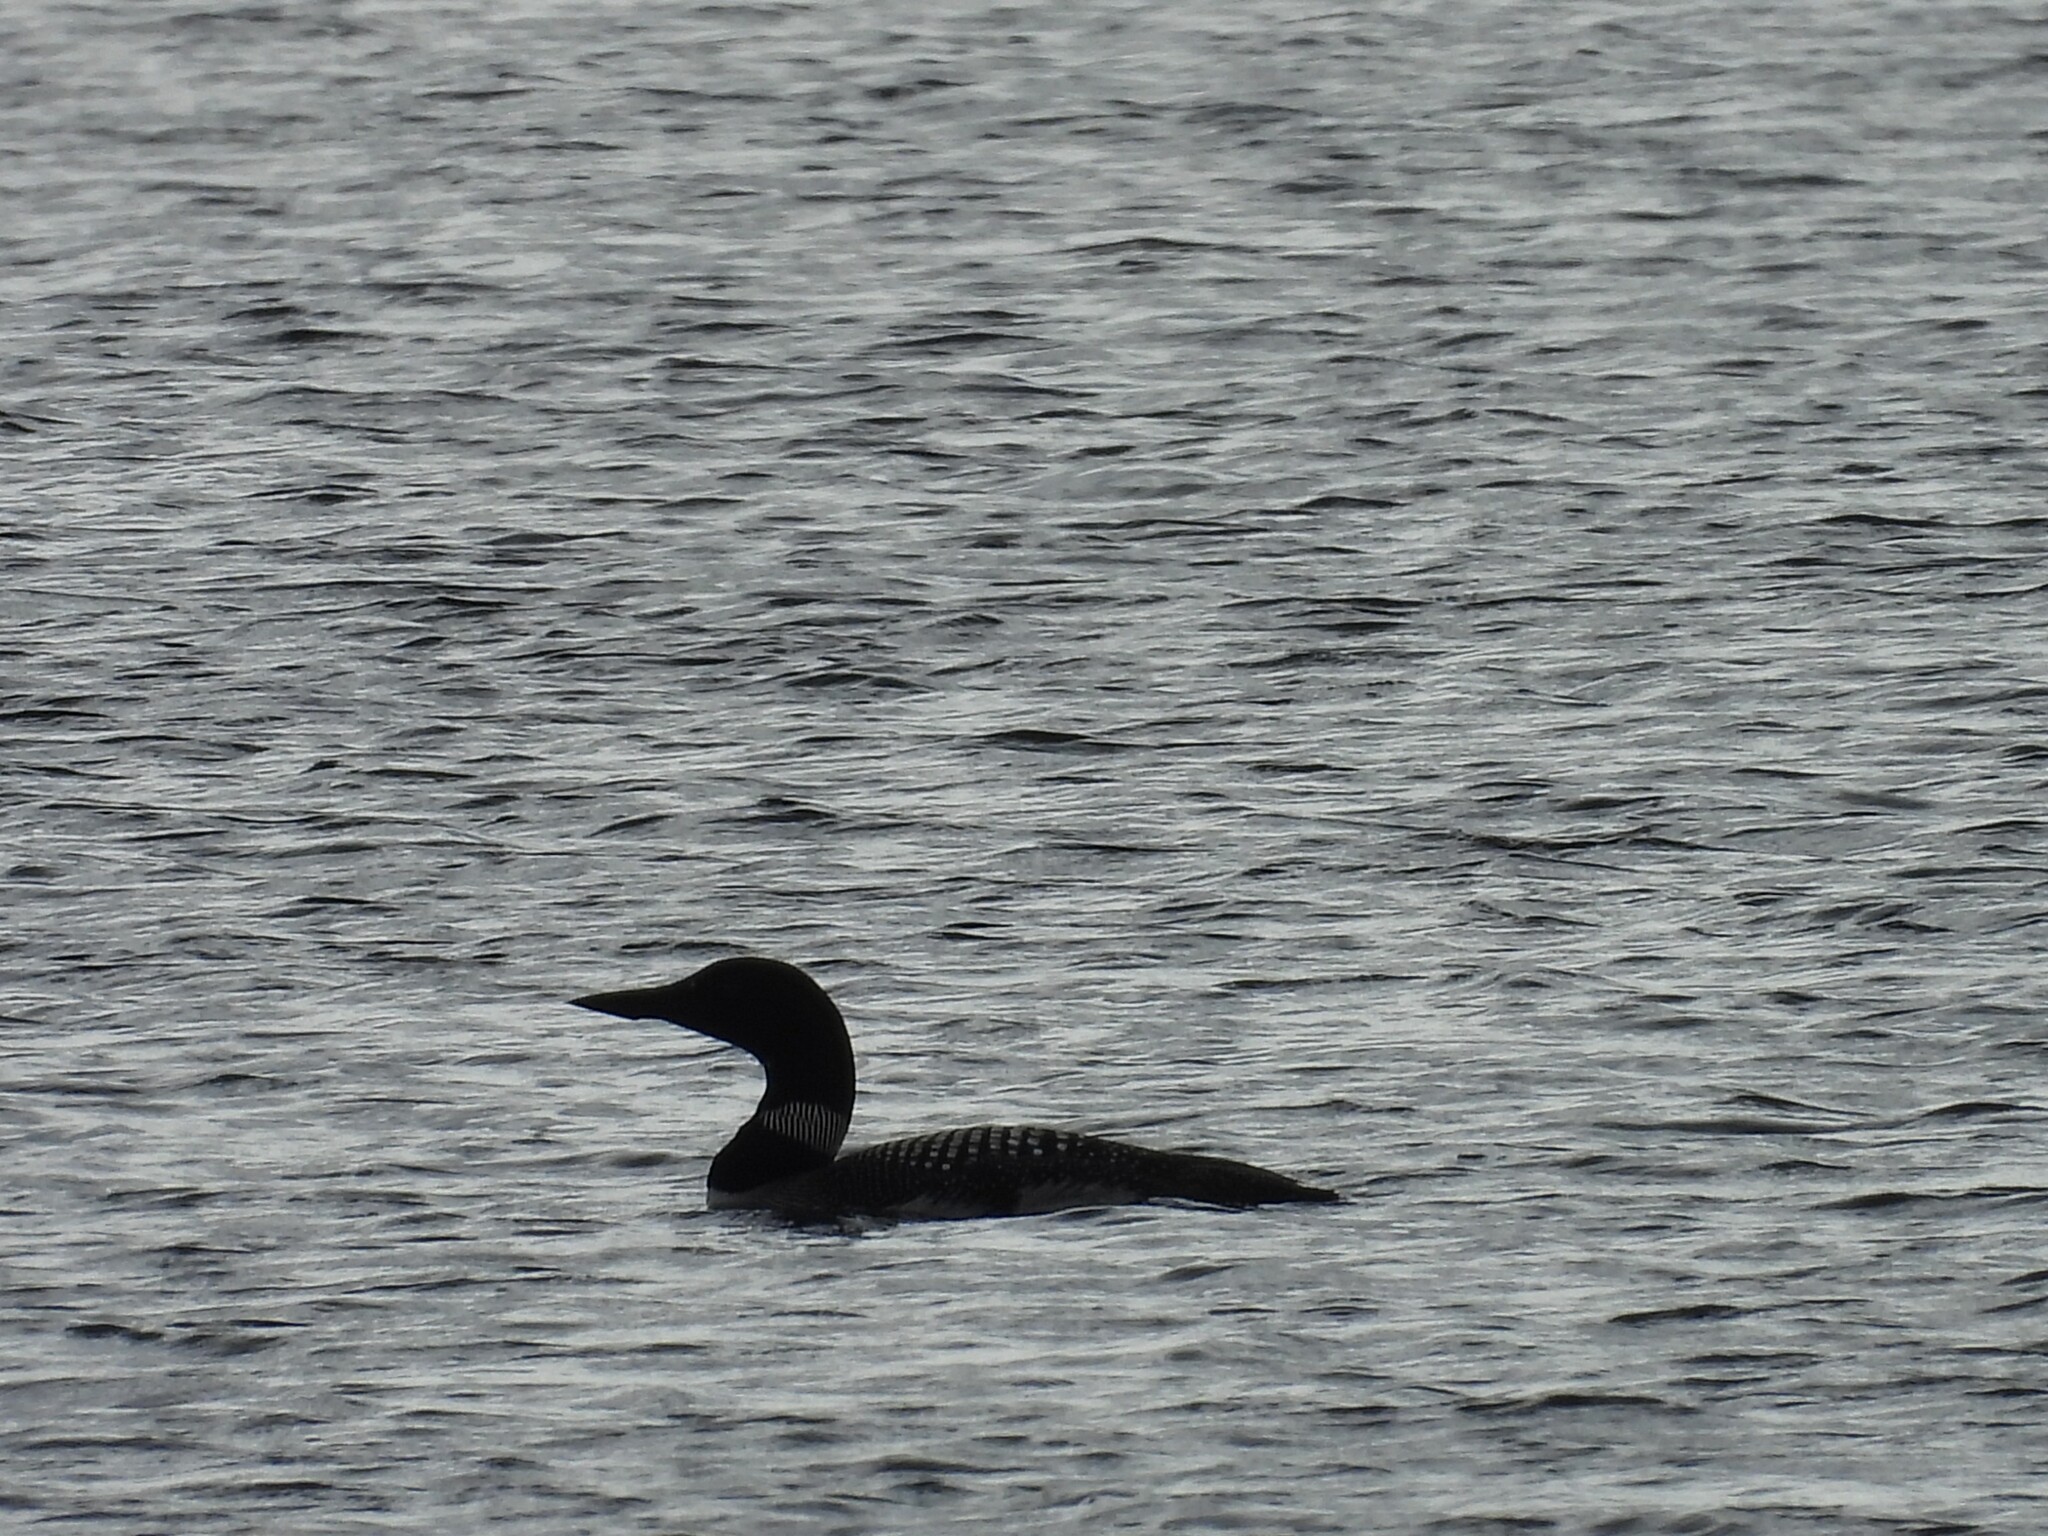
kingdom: Animalia
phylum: Chordata
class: Aves
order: Gaviiformes
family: Gaviidae
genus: Gavia
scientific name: Gavia immer
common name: Common loon
